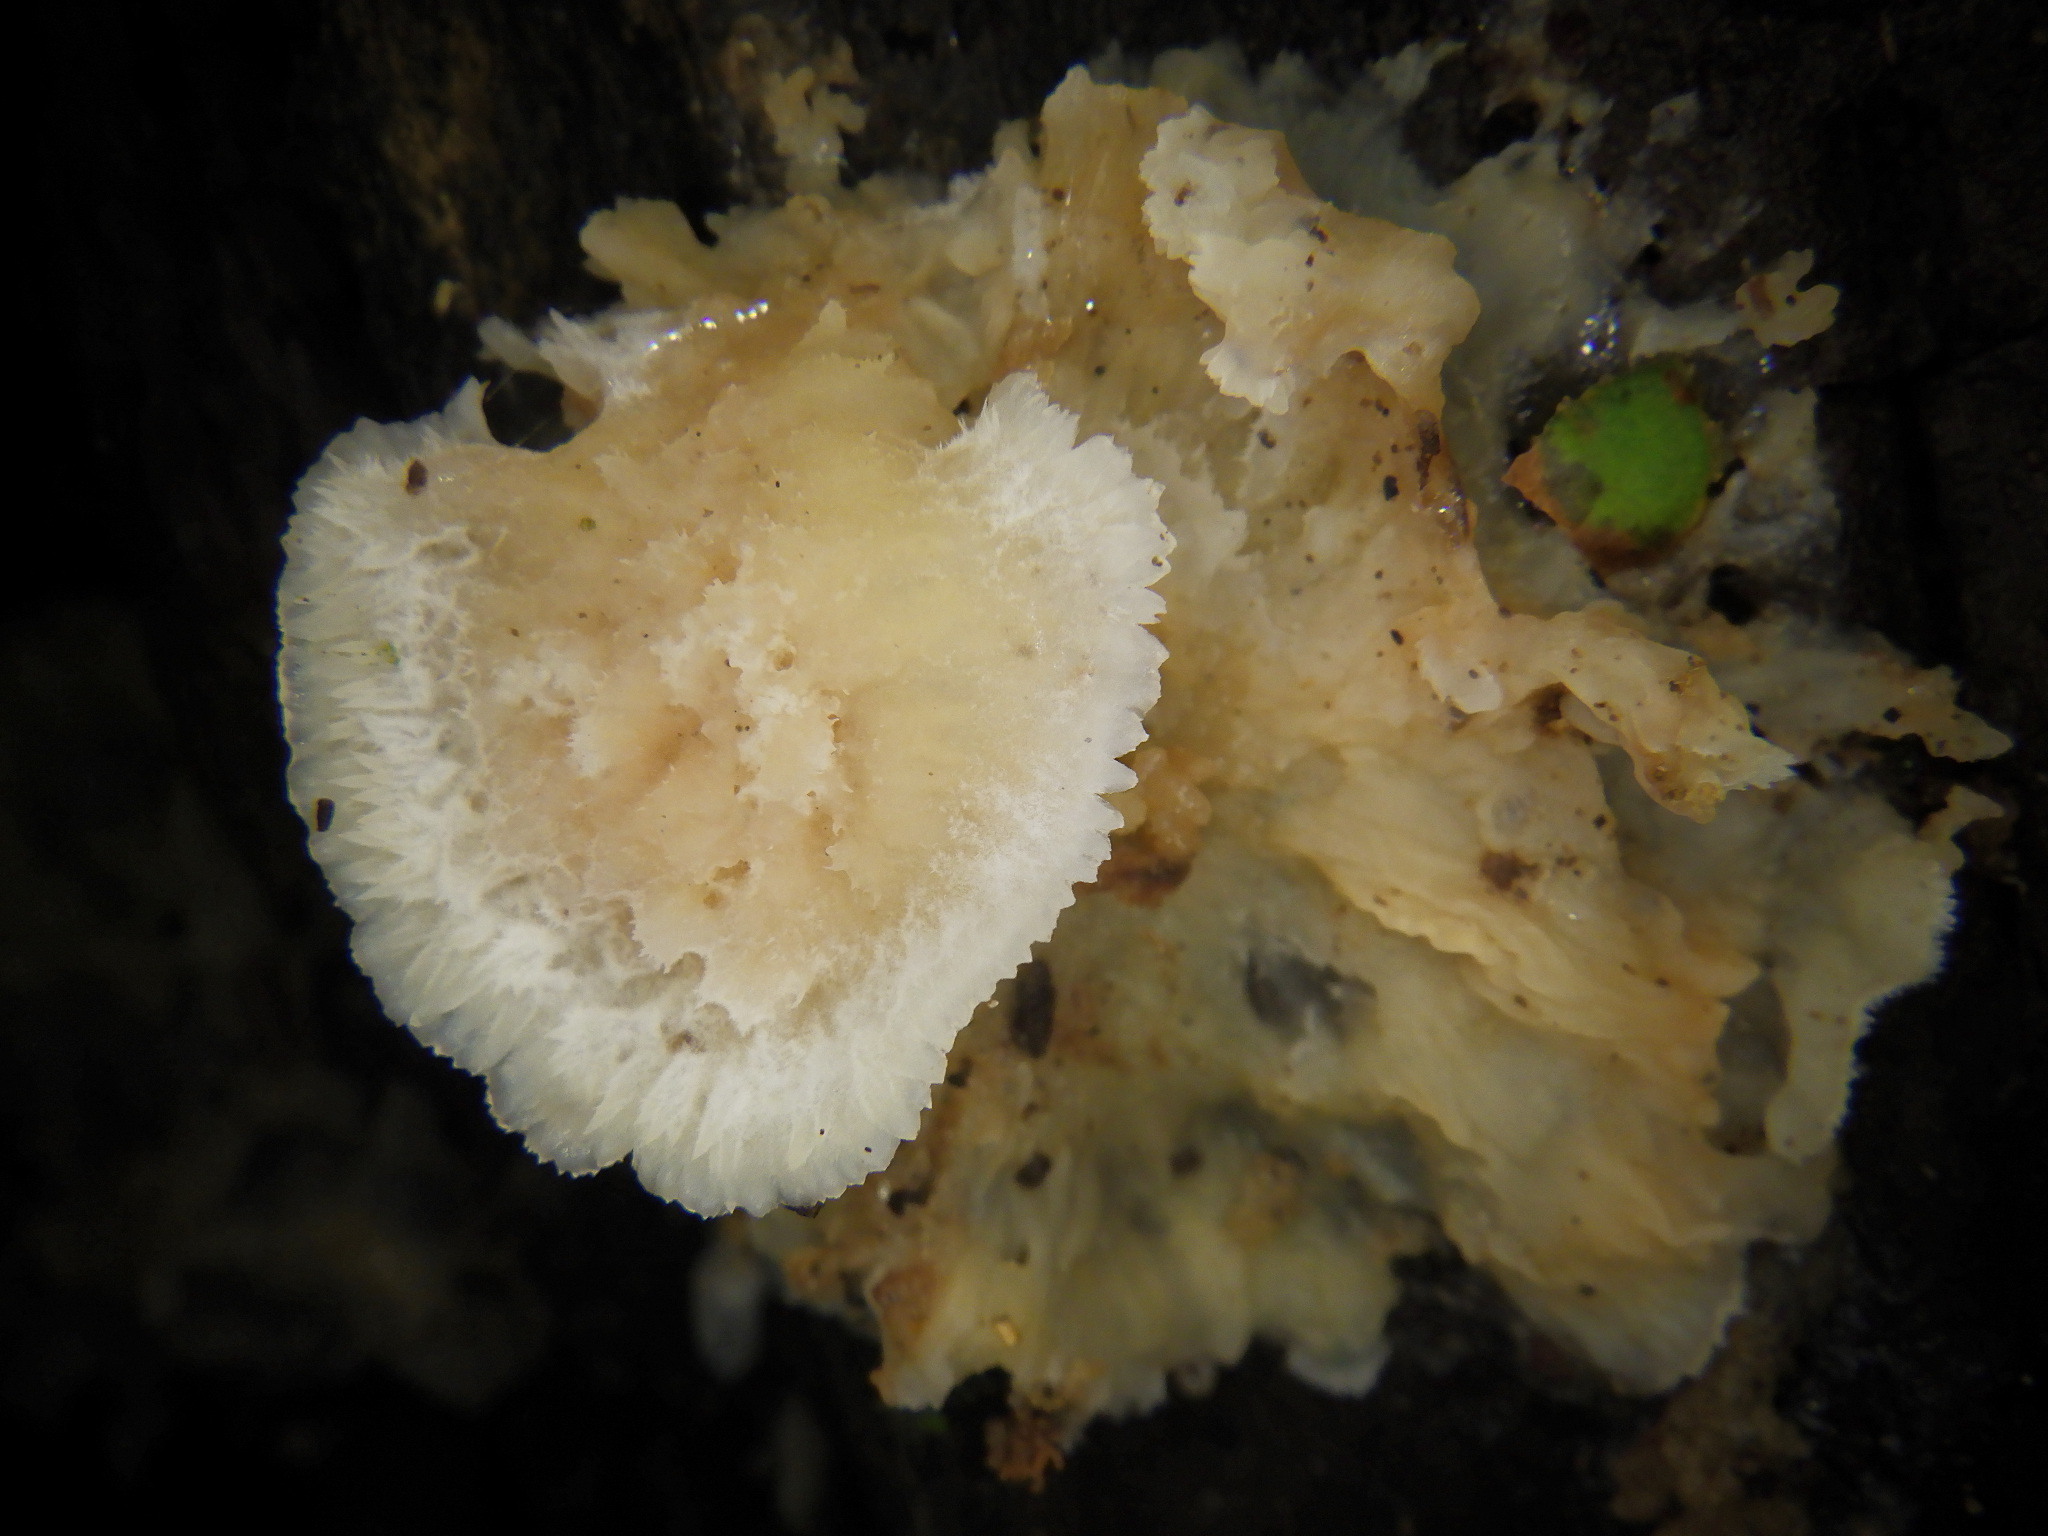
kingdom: Fungi
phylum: Basidiomycota
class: Agaricomycetes
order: Polyporales
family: Meruliaceae
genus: Phlebia
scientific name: Phlebia tremellosa
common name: Jelly rot
